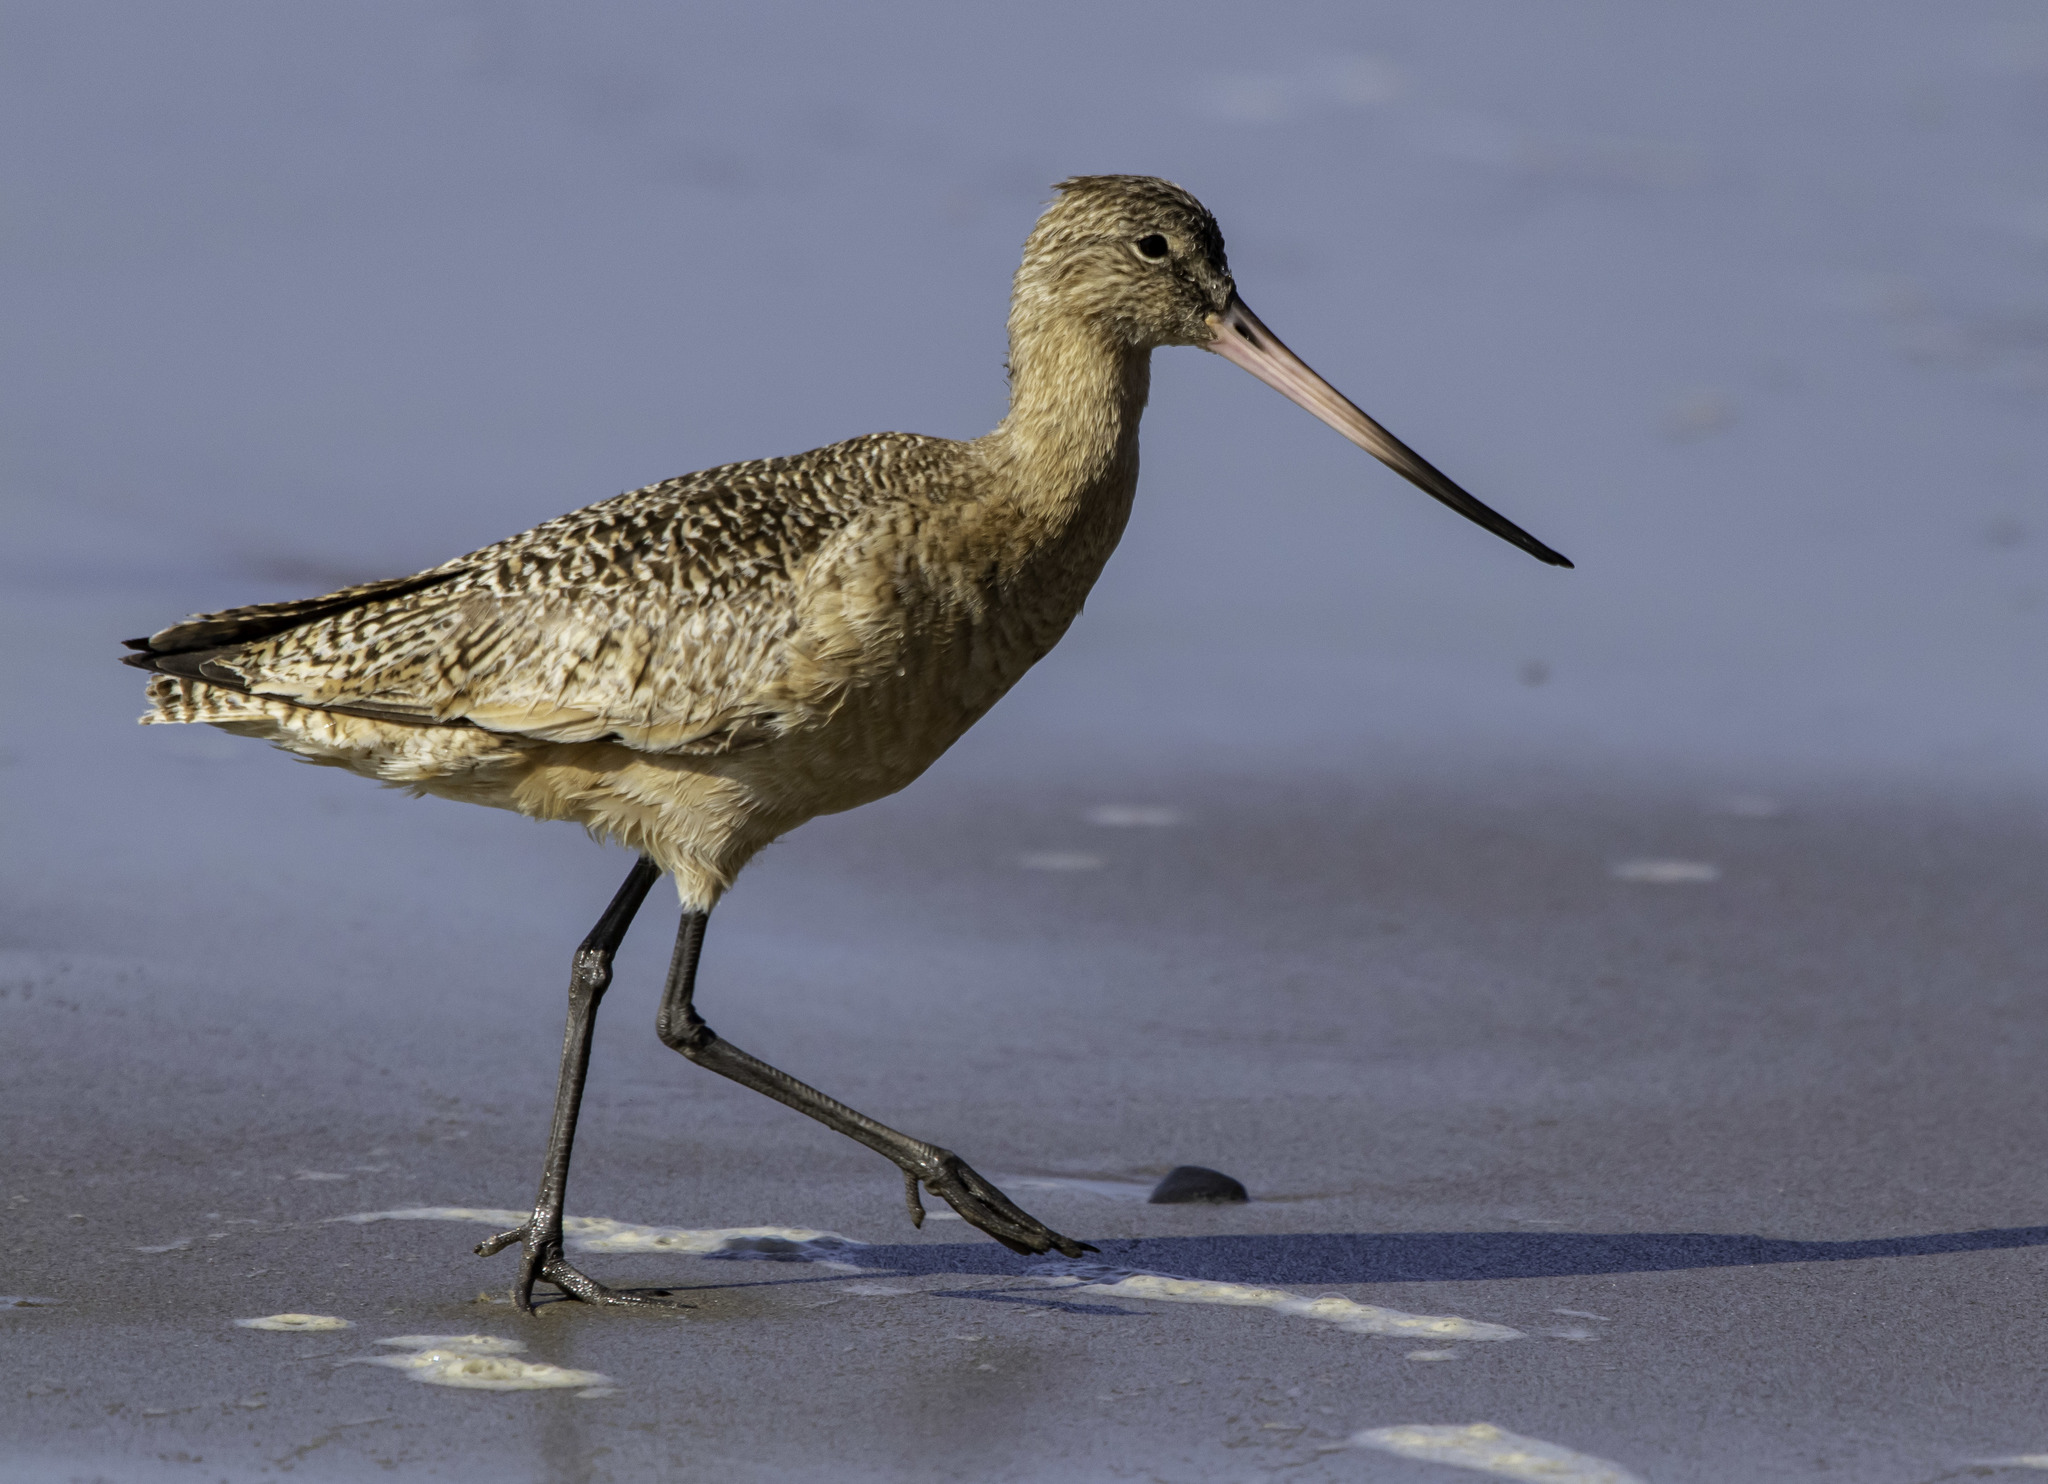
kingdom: Animalia
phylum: Chordata
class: Aves
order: Charadriiformes
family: Scolopacidae
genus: Limosa
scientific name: Limosa fedoa
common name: Marbled godwit
